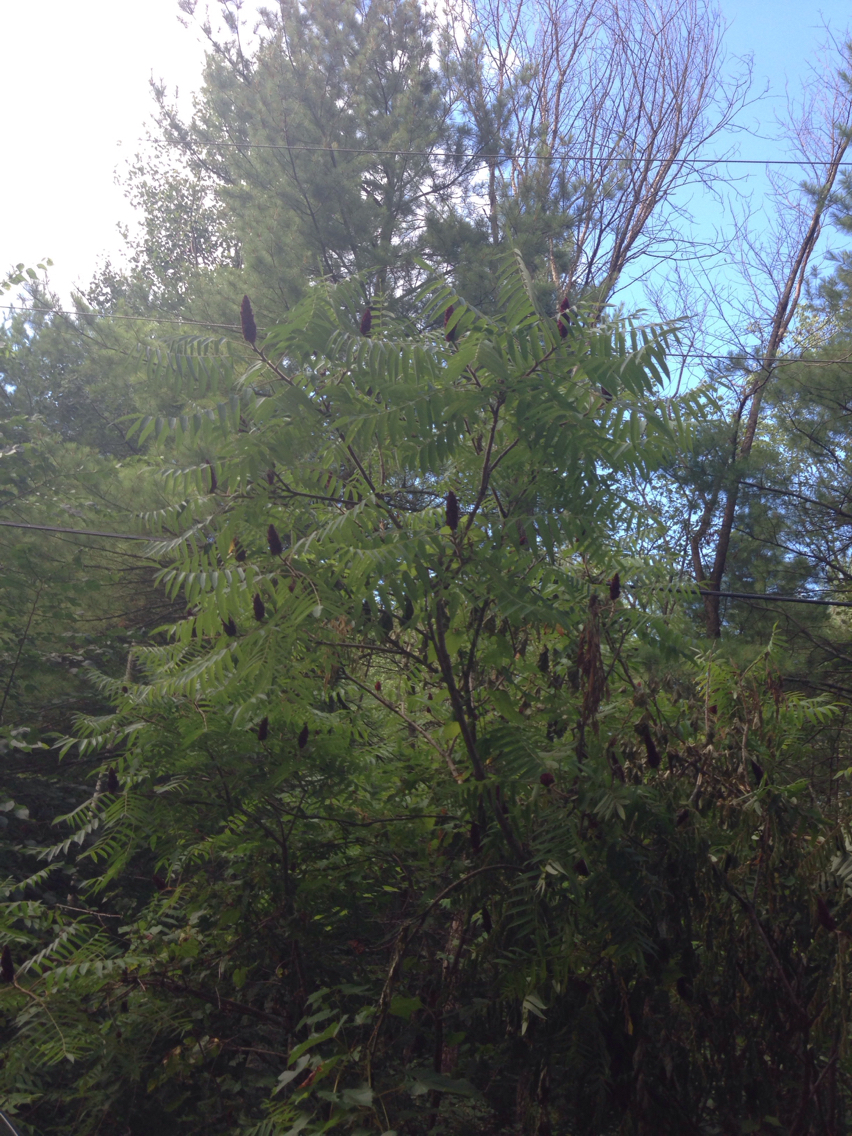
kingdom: Plantae
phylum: Tracheophyta
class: Magnoliopsida
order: Sapindales
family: Anacardiaceae
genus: Rhus
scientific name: Rhus typhina
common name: Staghorn sumac
